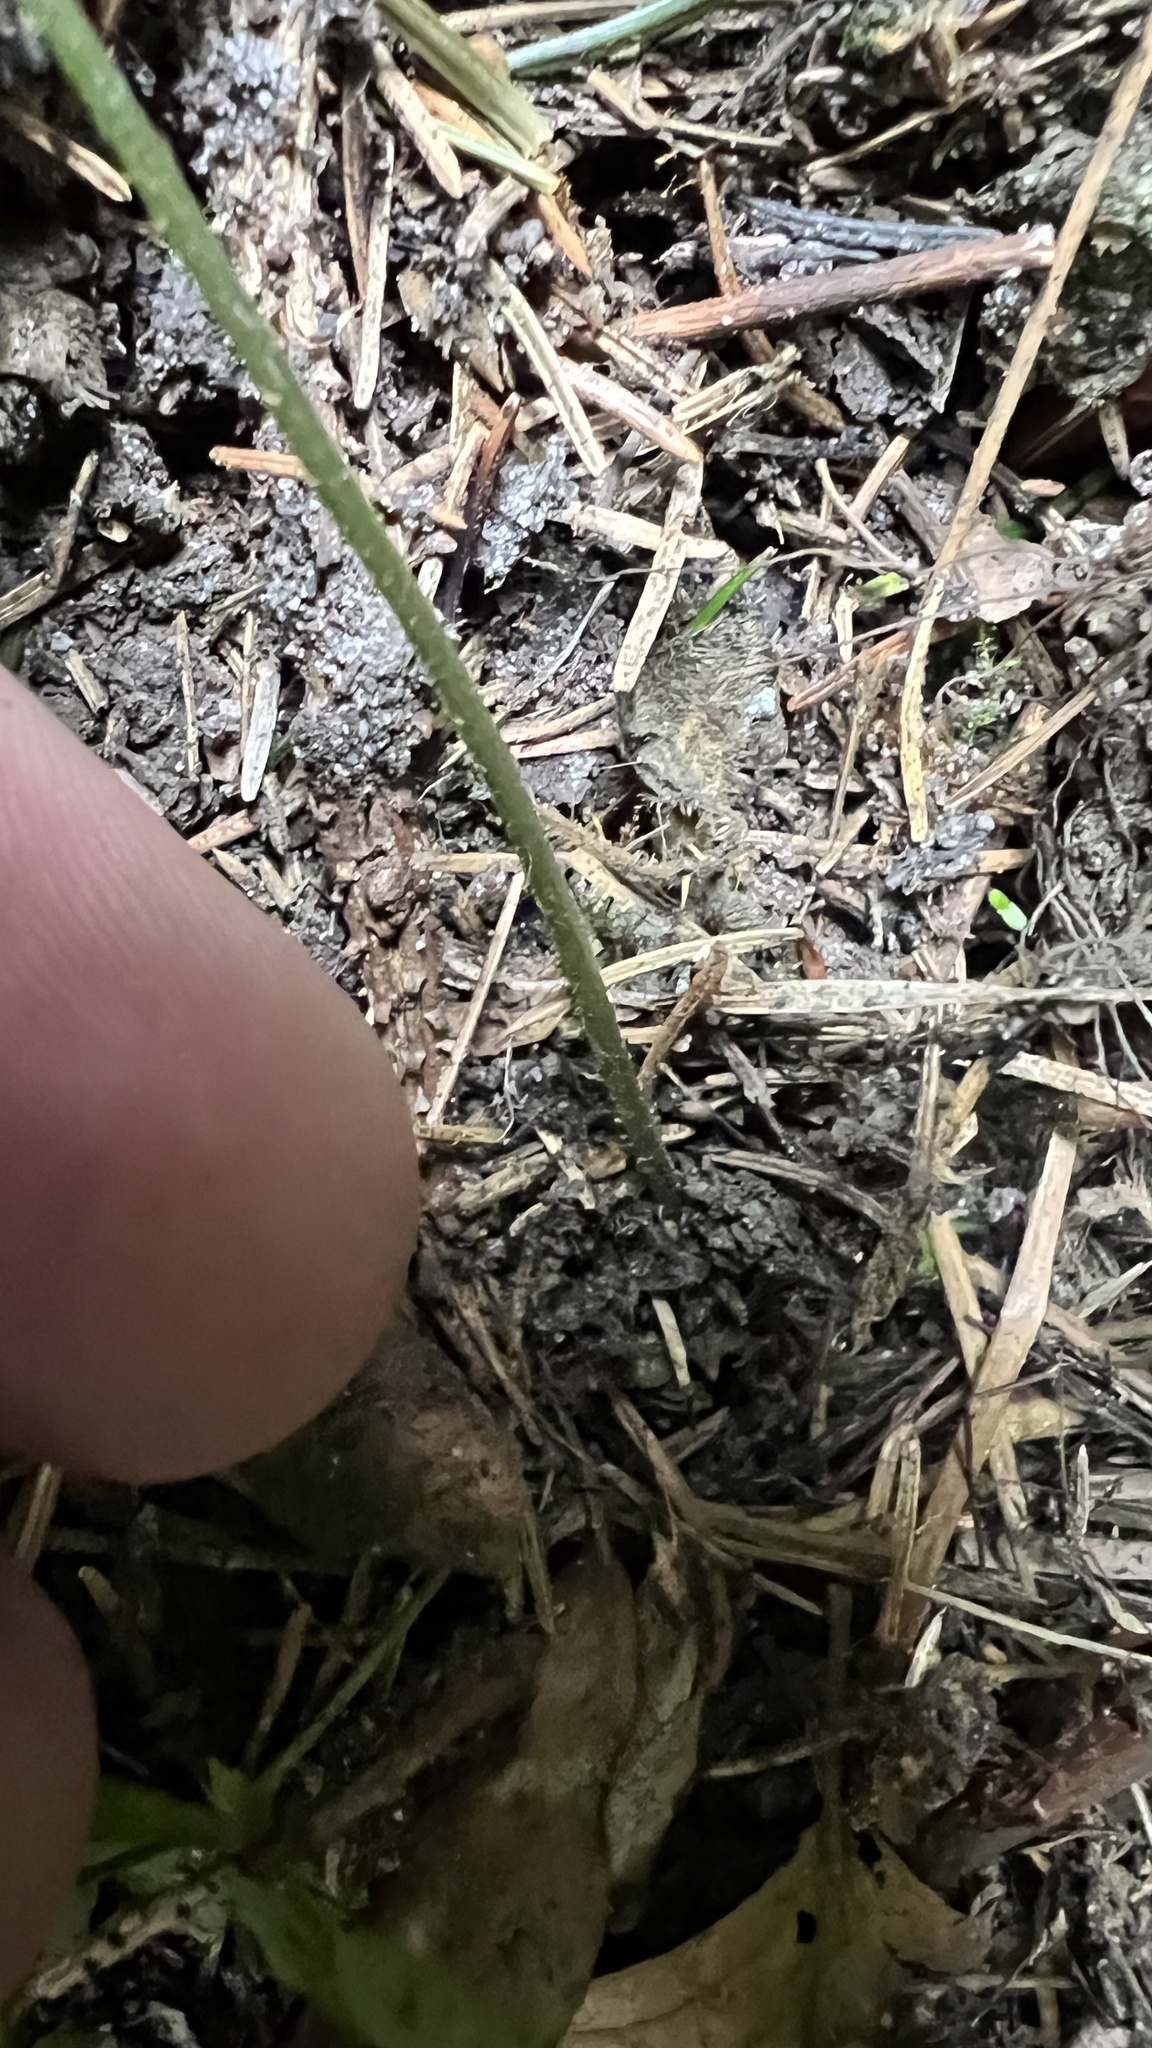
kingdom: Plantae
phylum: Tracheophyta
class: Polypodiopsida
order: Polypodiales
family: Dryopteridaceae
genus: Dryopteris
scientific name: Dryopteris carthusiana
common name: Narrow buckler-fern
